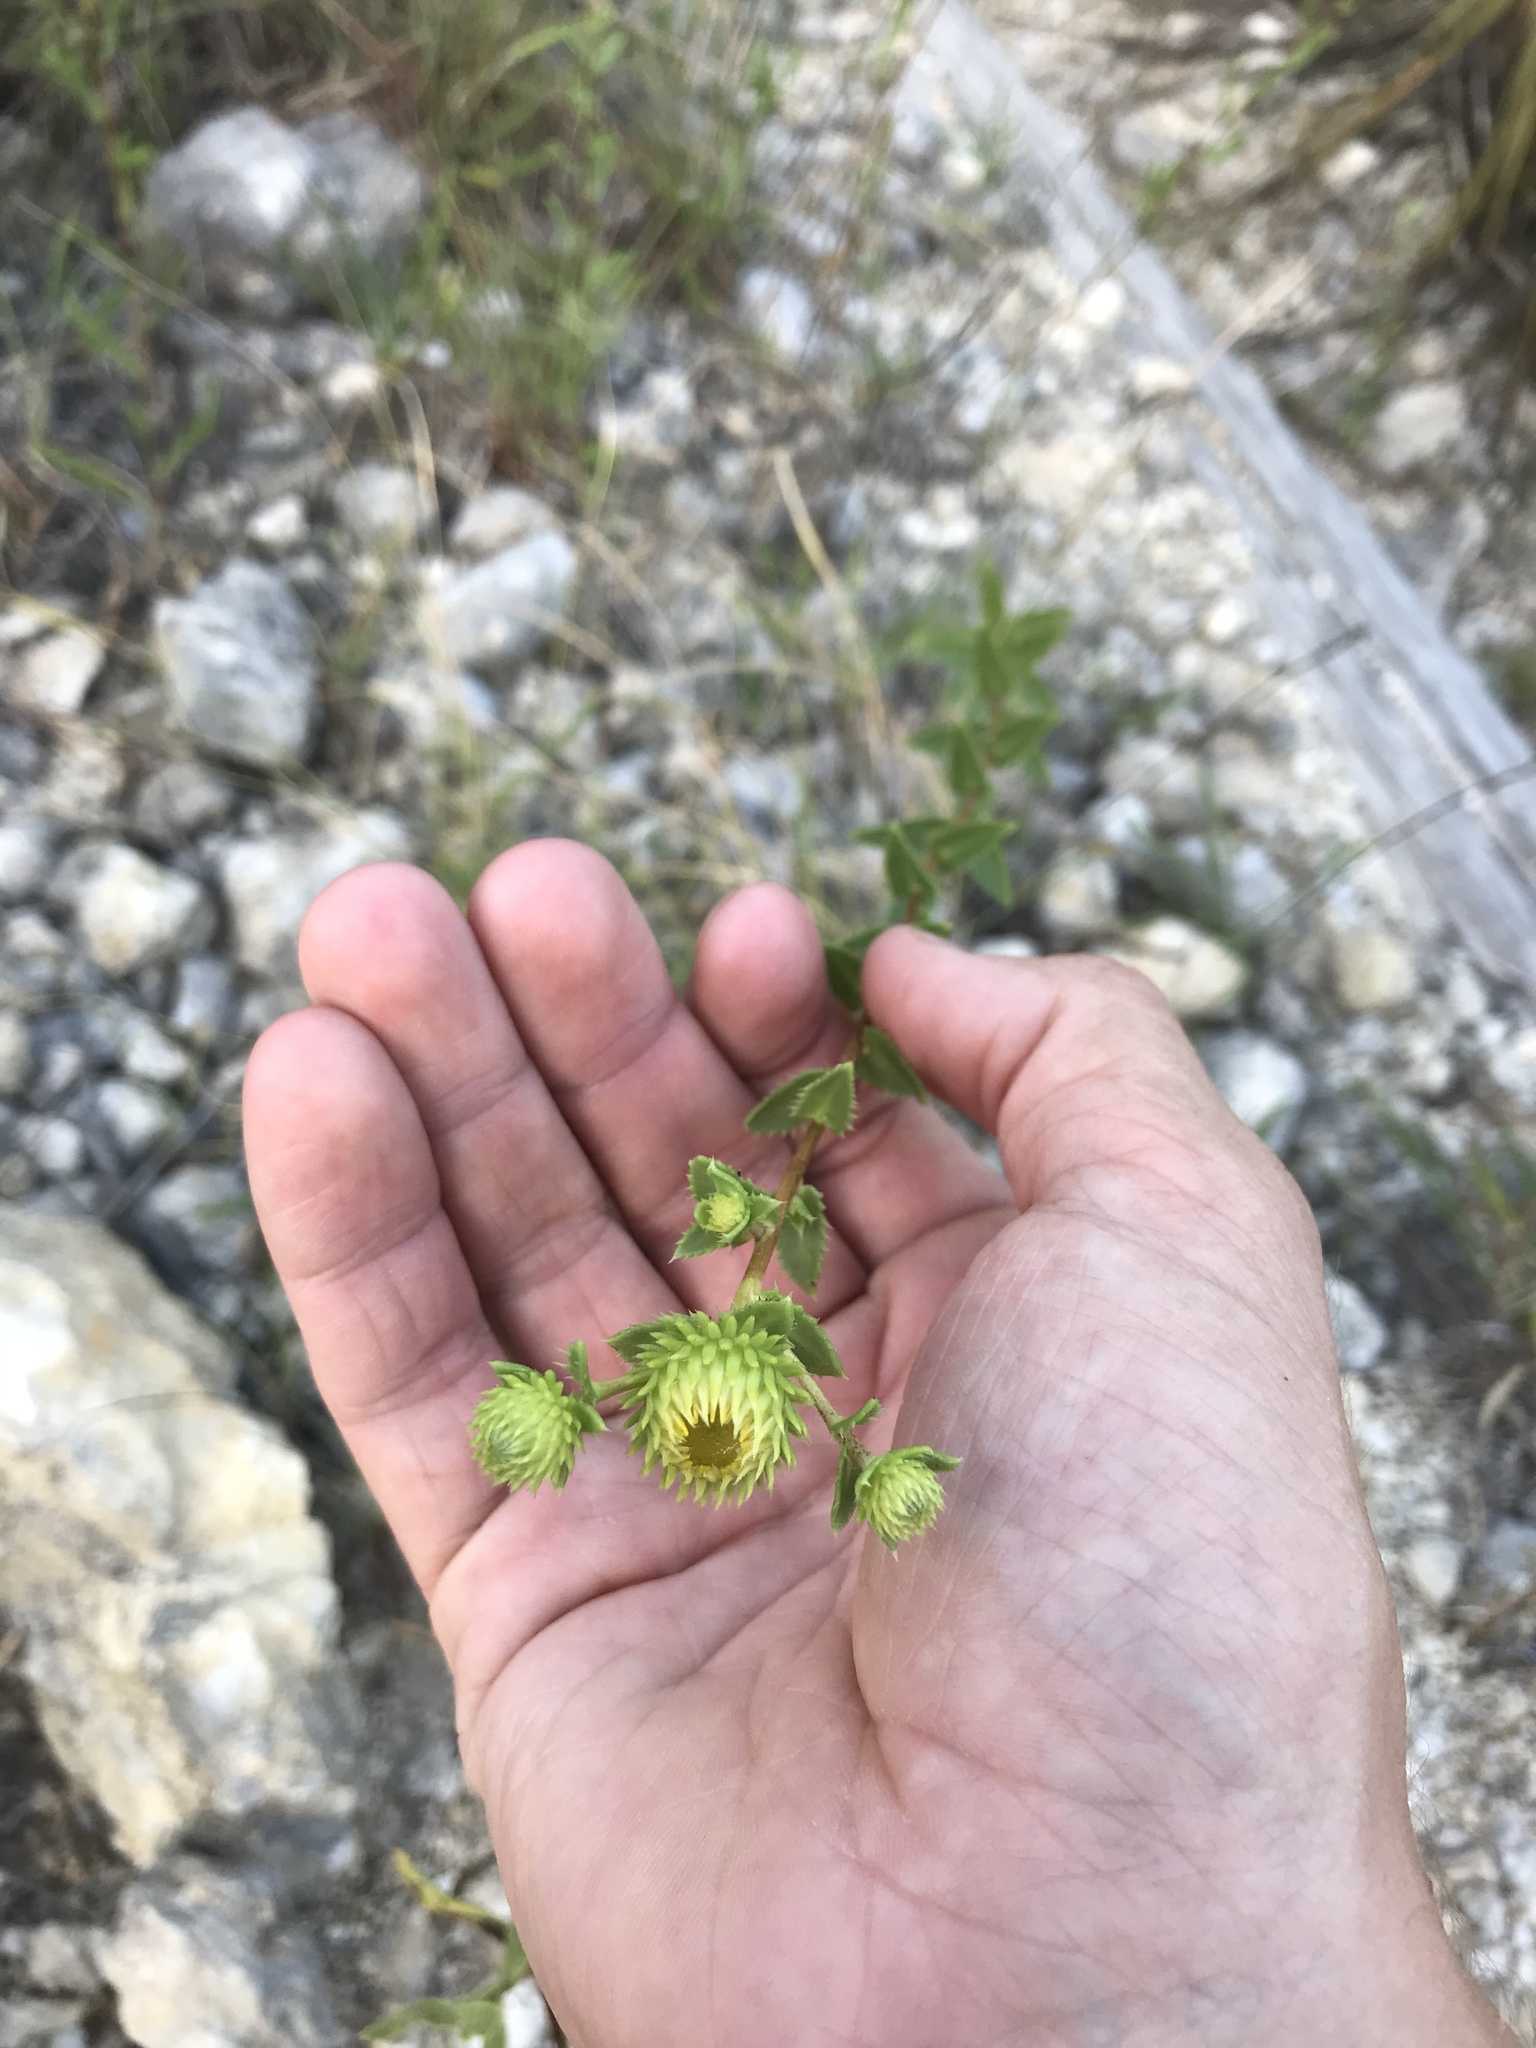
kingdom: Plantae
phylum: Tracheophyta
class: Magnoliopsida
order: Asterales
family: Asteraceae
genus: Grindelia
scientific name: Grindelia lanceolata
